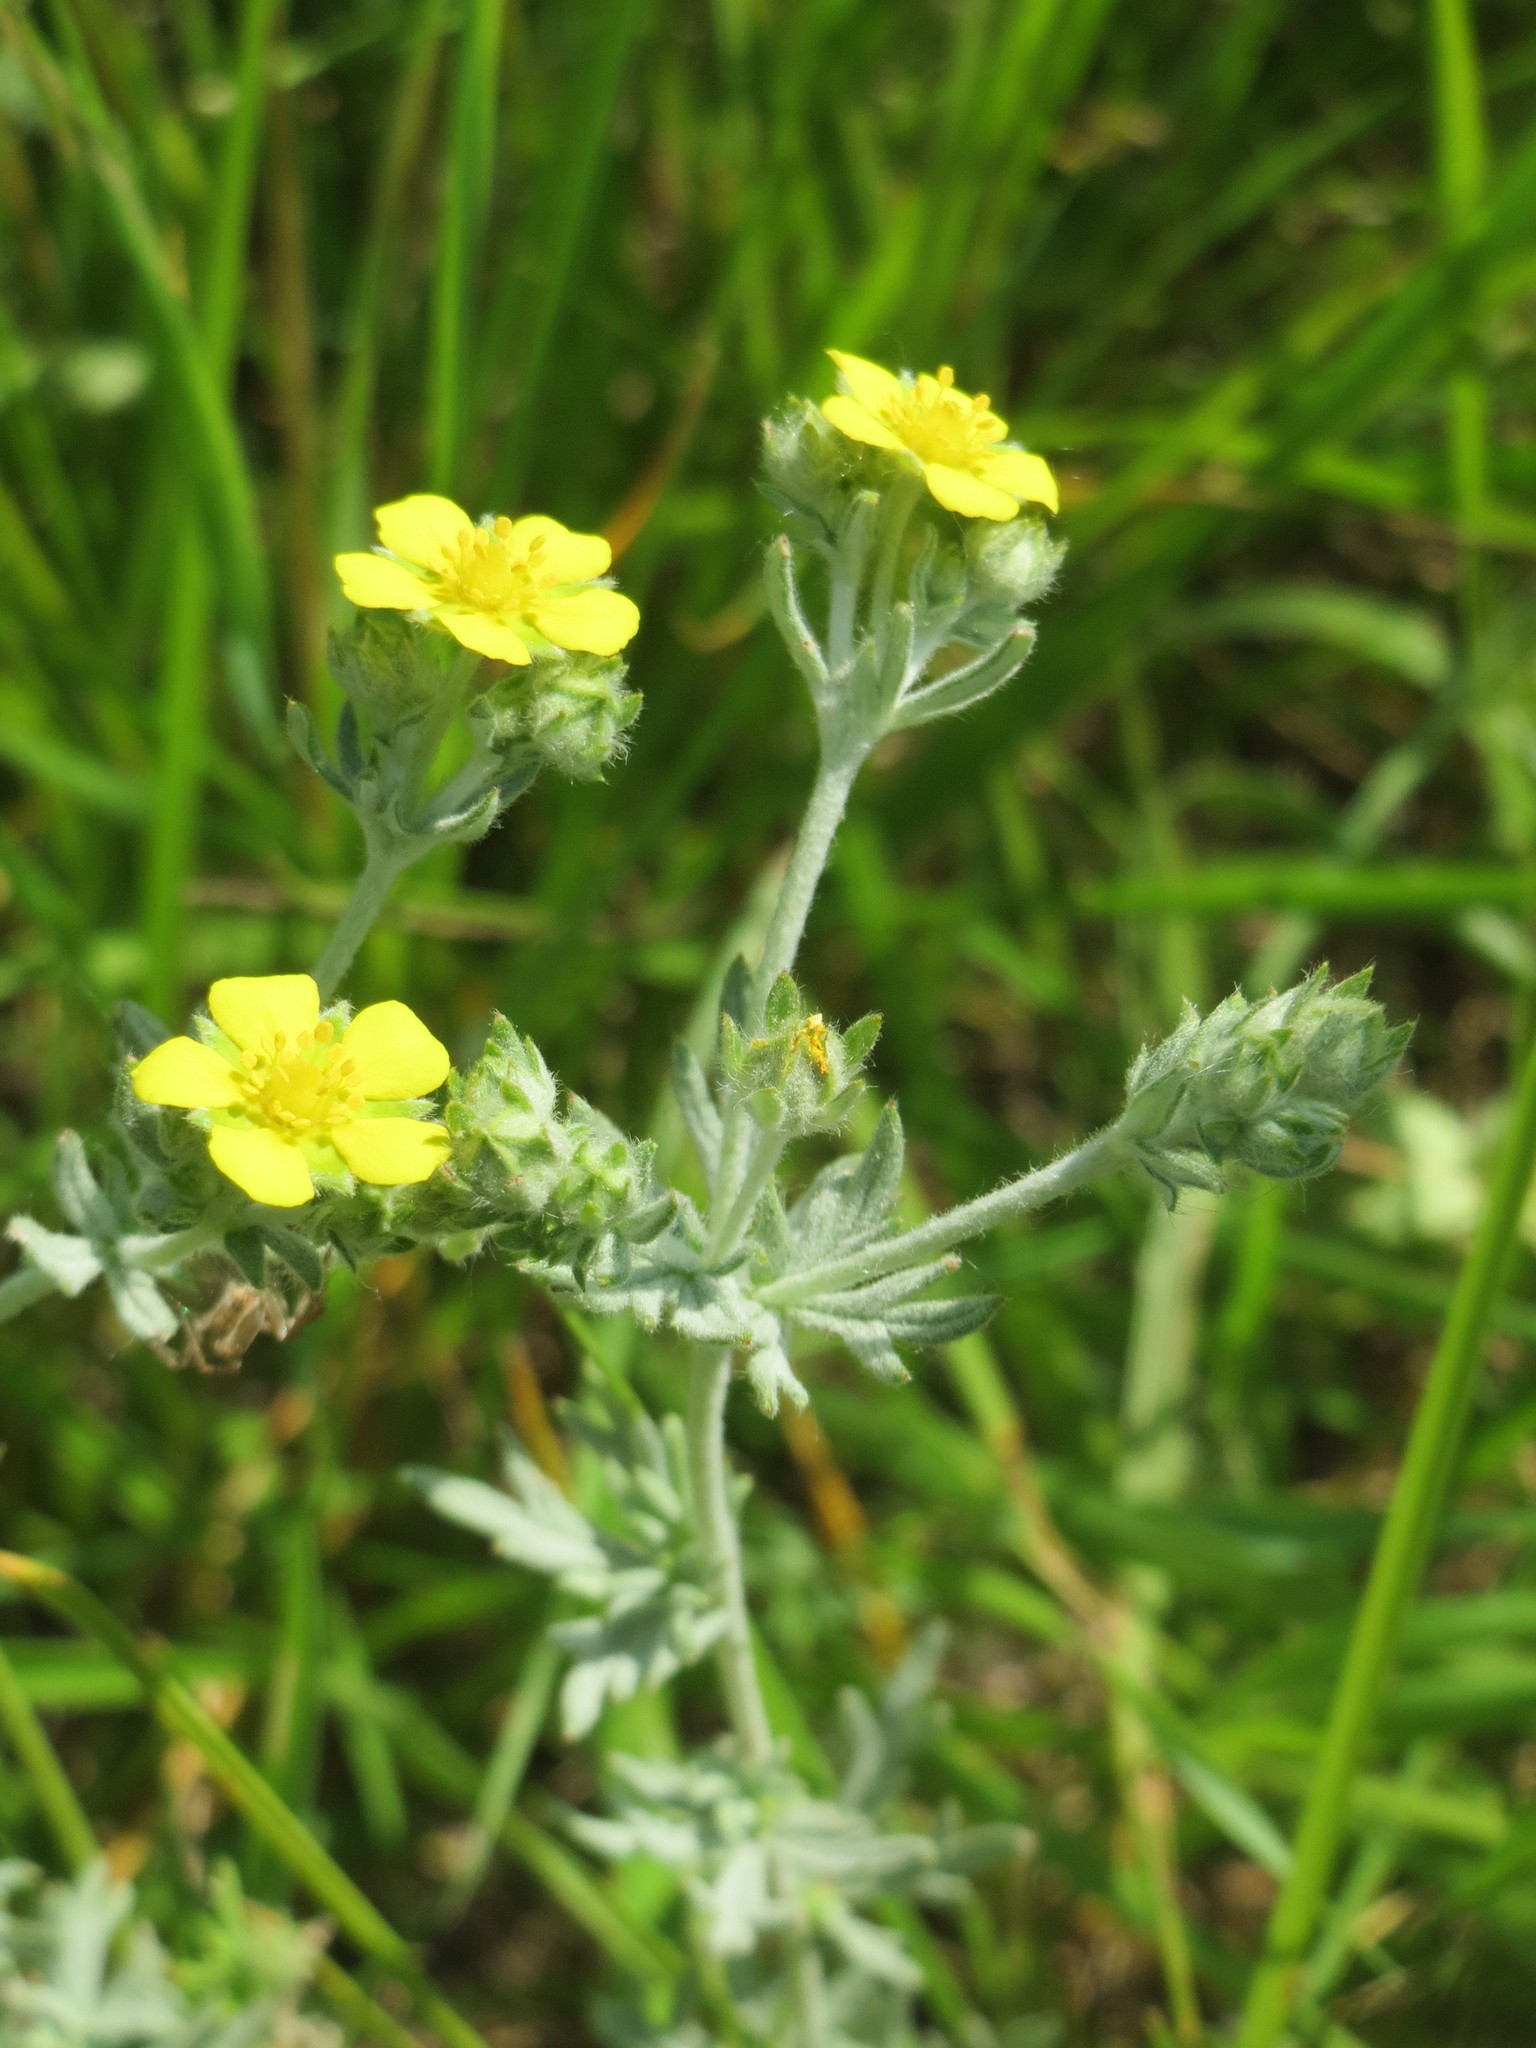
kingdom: Plantae
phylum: Tracheophyta
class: Magnoliopsida
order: Rosales
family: Rosaceae
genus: Potentilla
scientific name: Potentilla argentea
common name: Hoary cinquefoil
